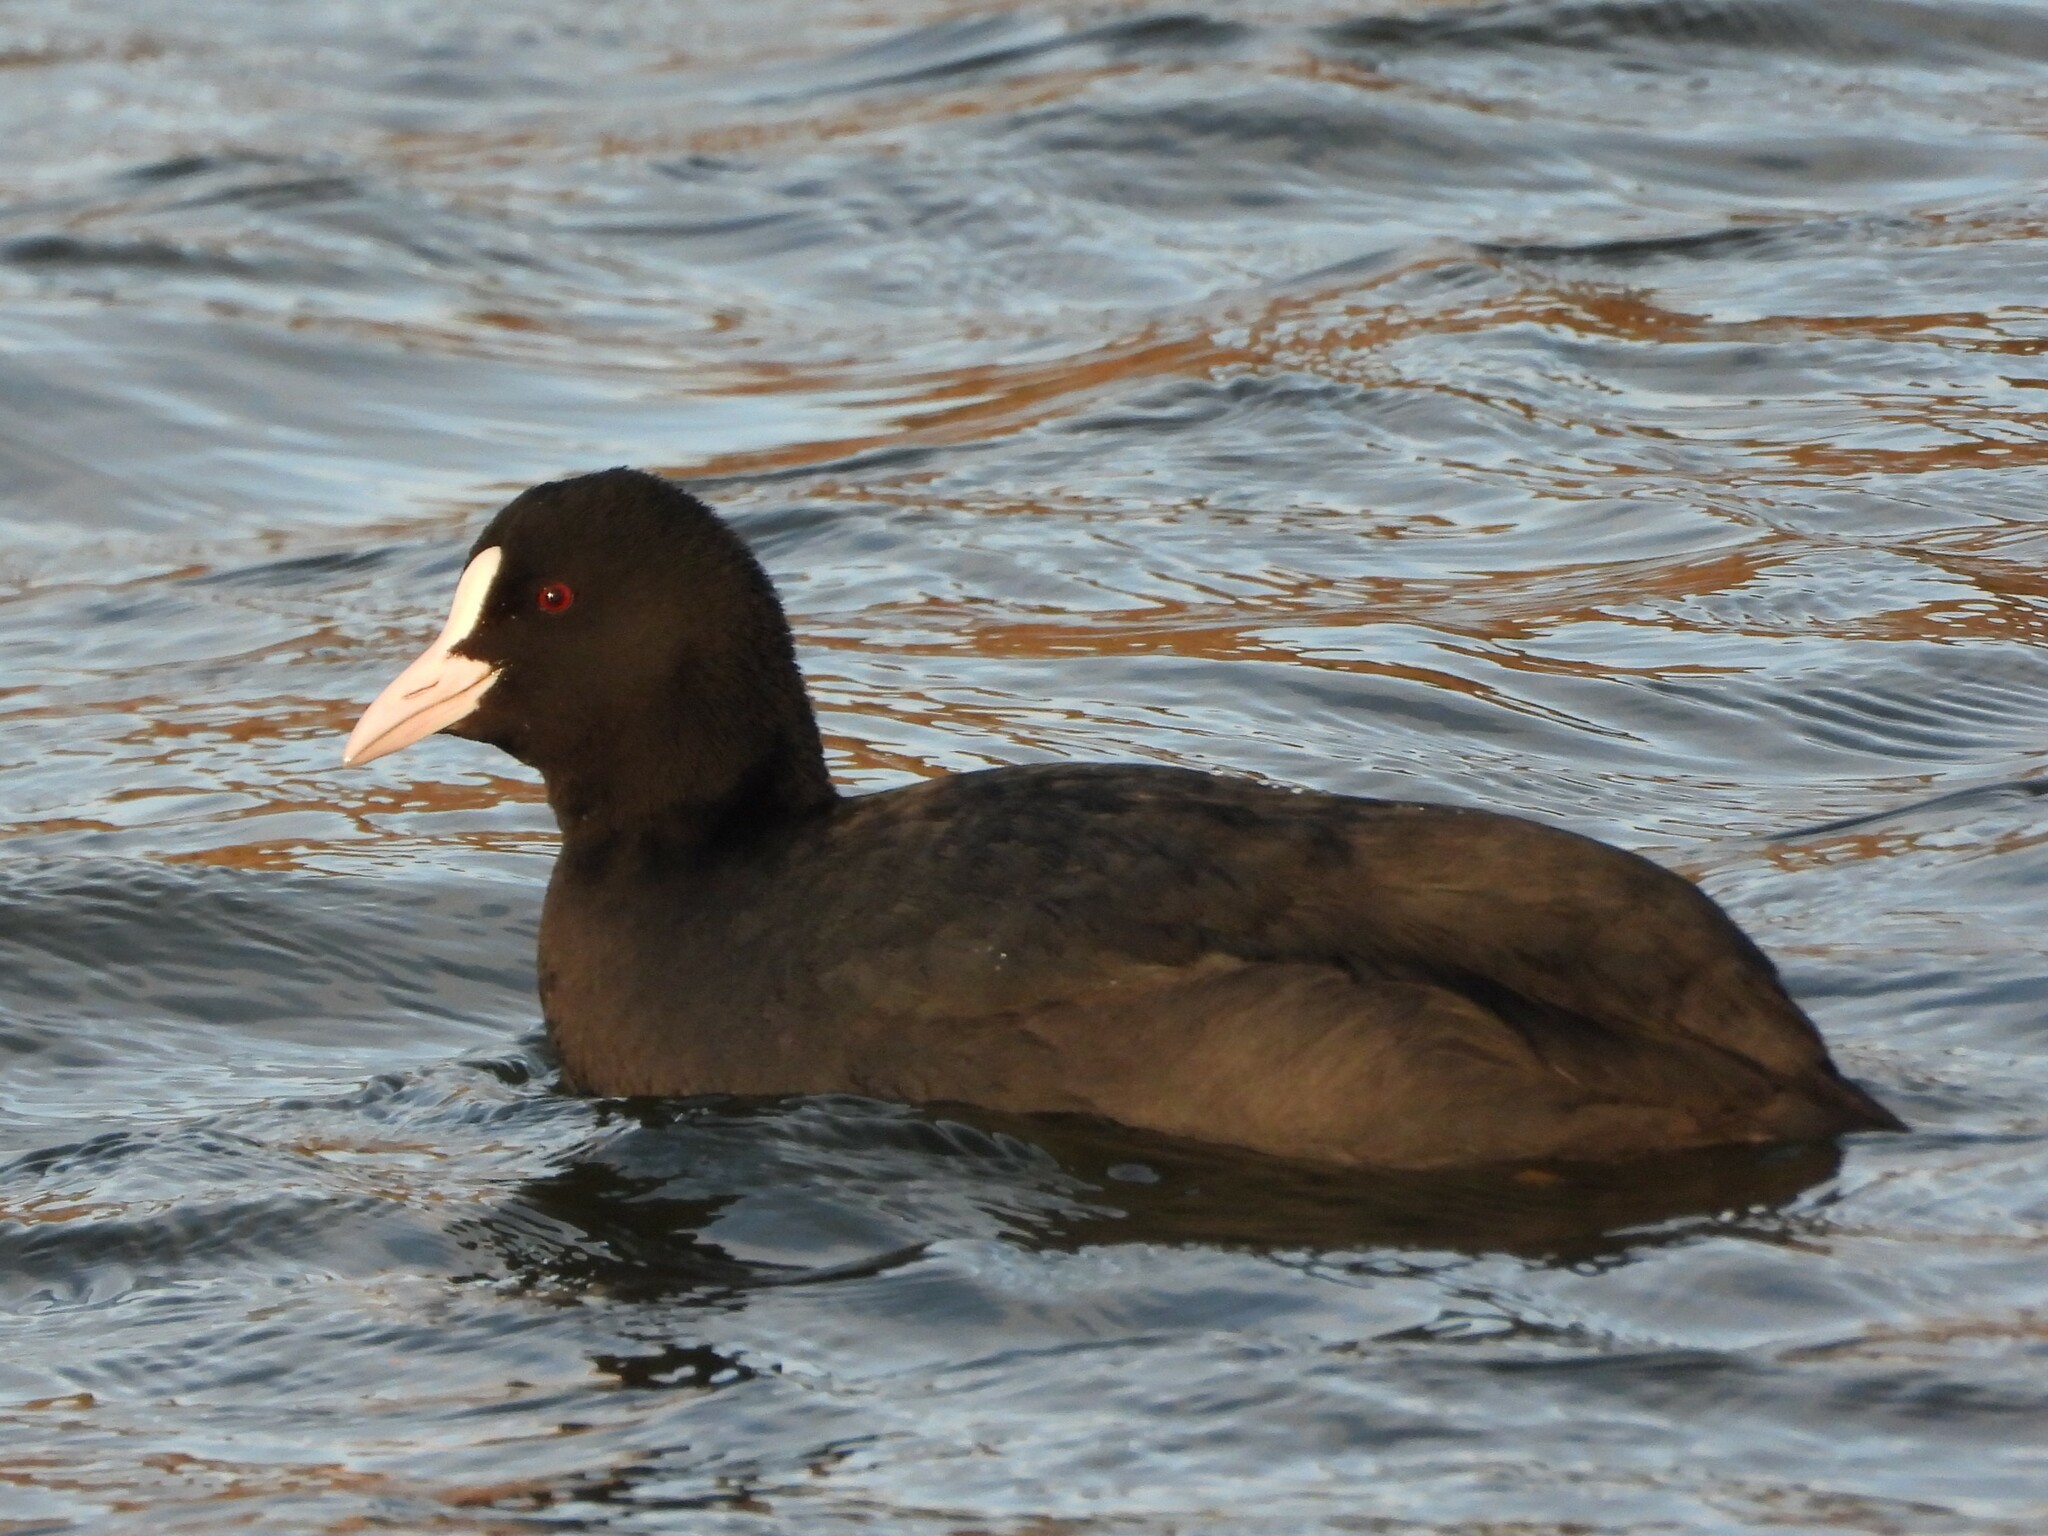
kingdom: Animalia
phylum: Chordata
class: Aves
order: Gruiformes
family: Rallidae
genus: Fulica
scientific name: Fulica atra
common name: Eurasian coot
